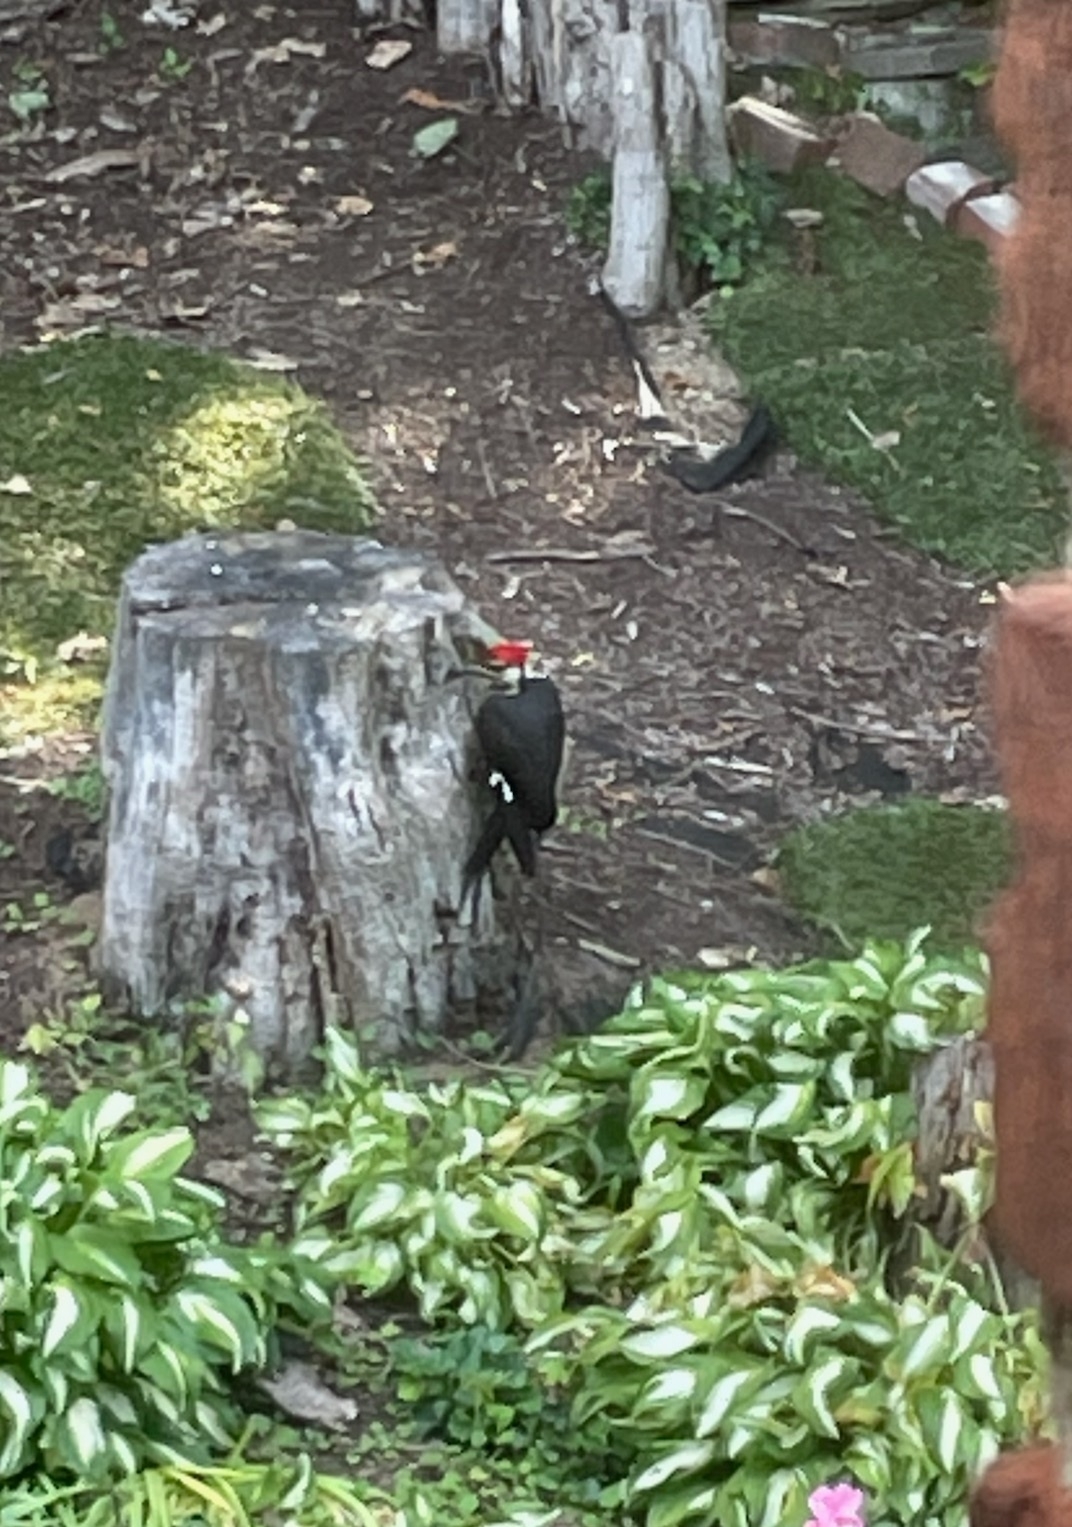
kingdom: Animalia
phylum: Chordata
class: Aves
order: Piciformes
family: Picidae
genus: Dryocopus
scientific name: Dryocopus pileatus
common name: Pileated woodpecker
